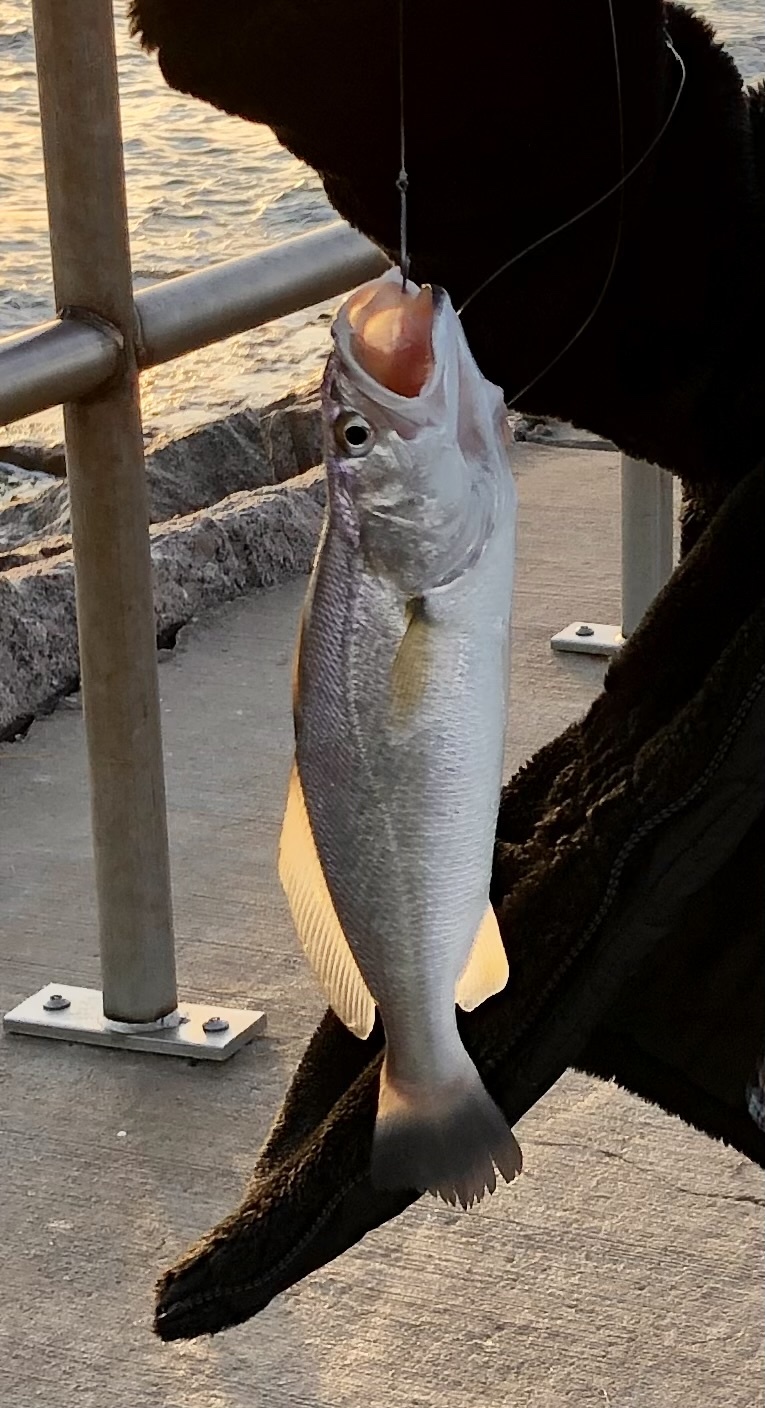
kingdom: Animalia
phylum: Chordata
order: Perciformes
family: Sciaenidae
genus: Cynoscion
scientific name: Cynoscion arenarius
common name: Sand seatrout
